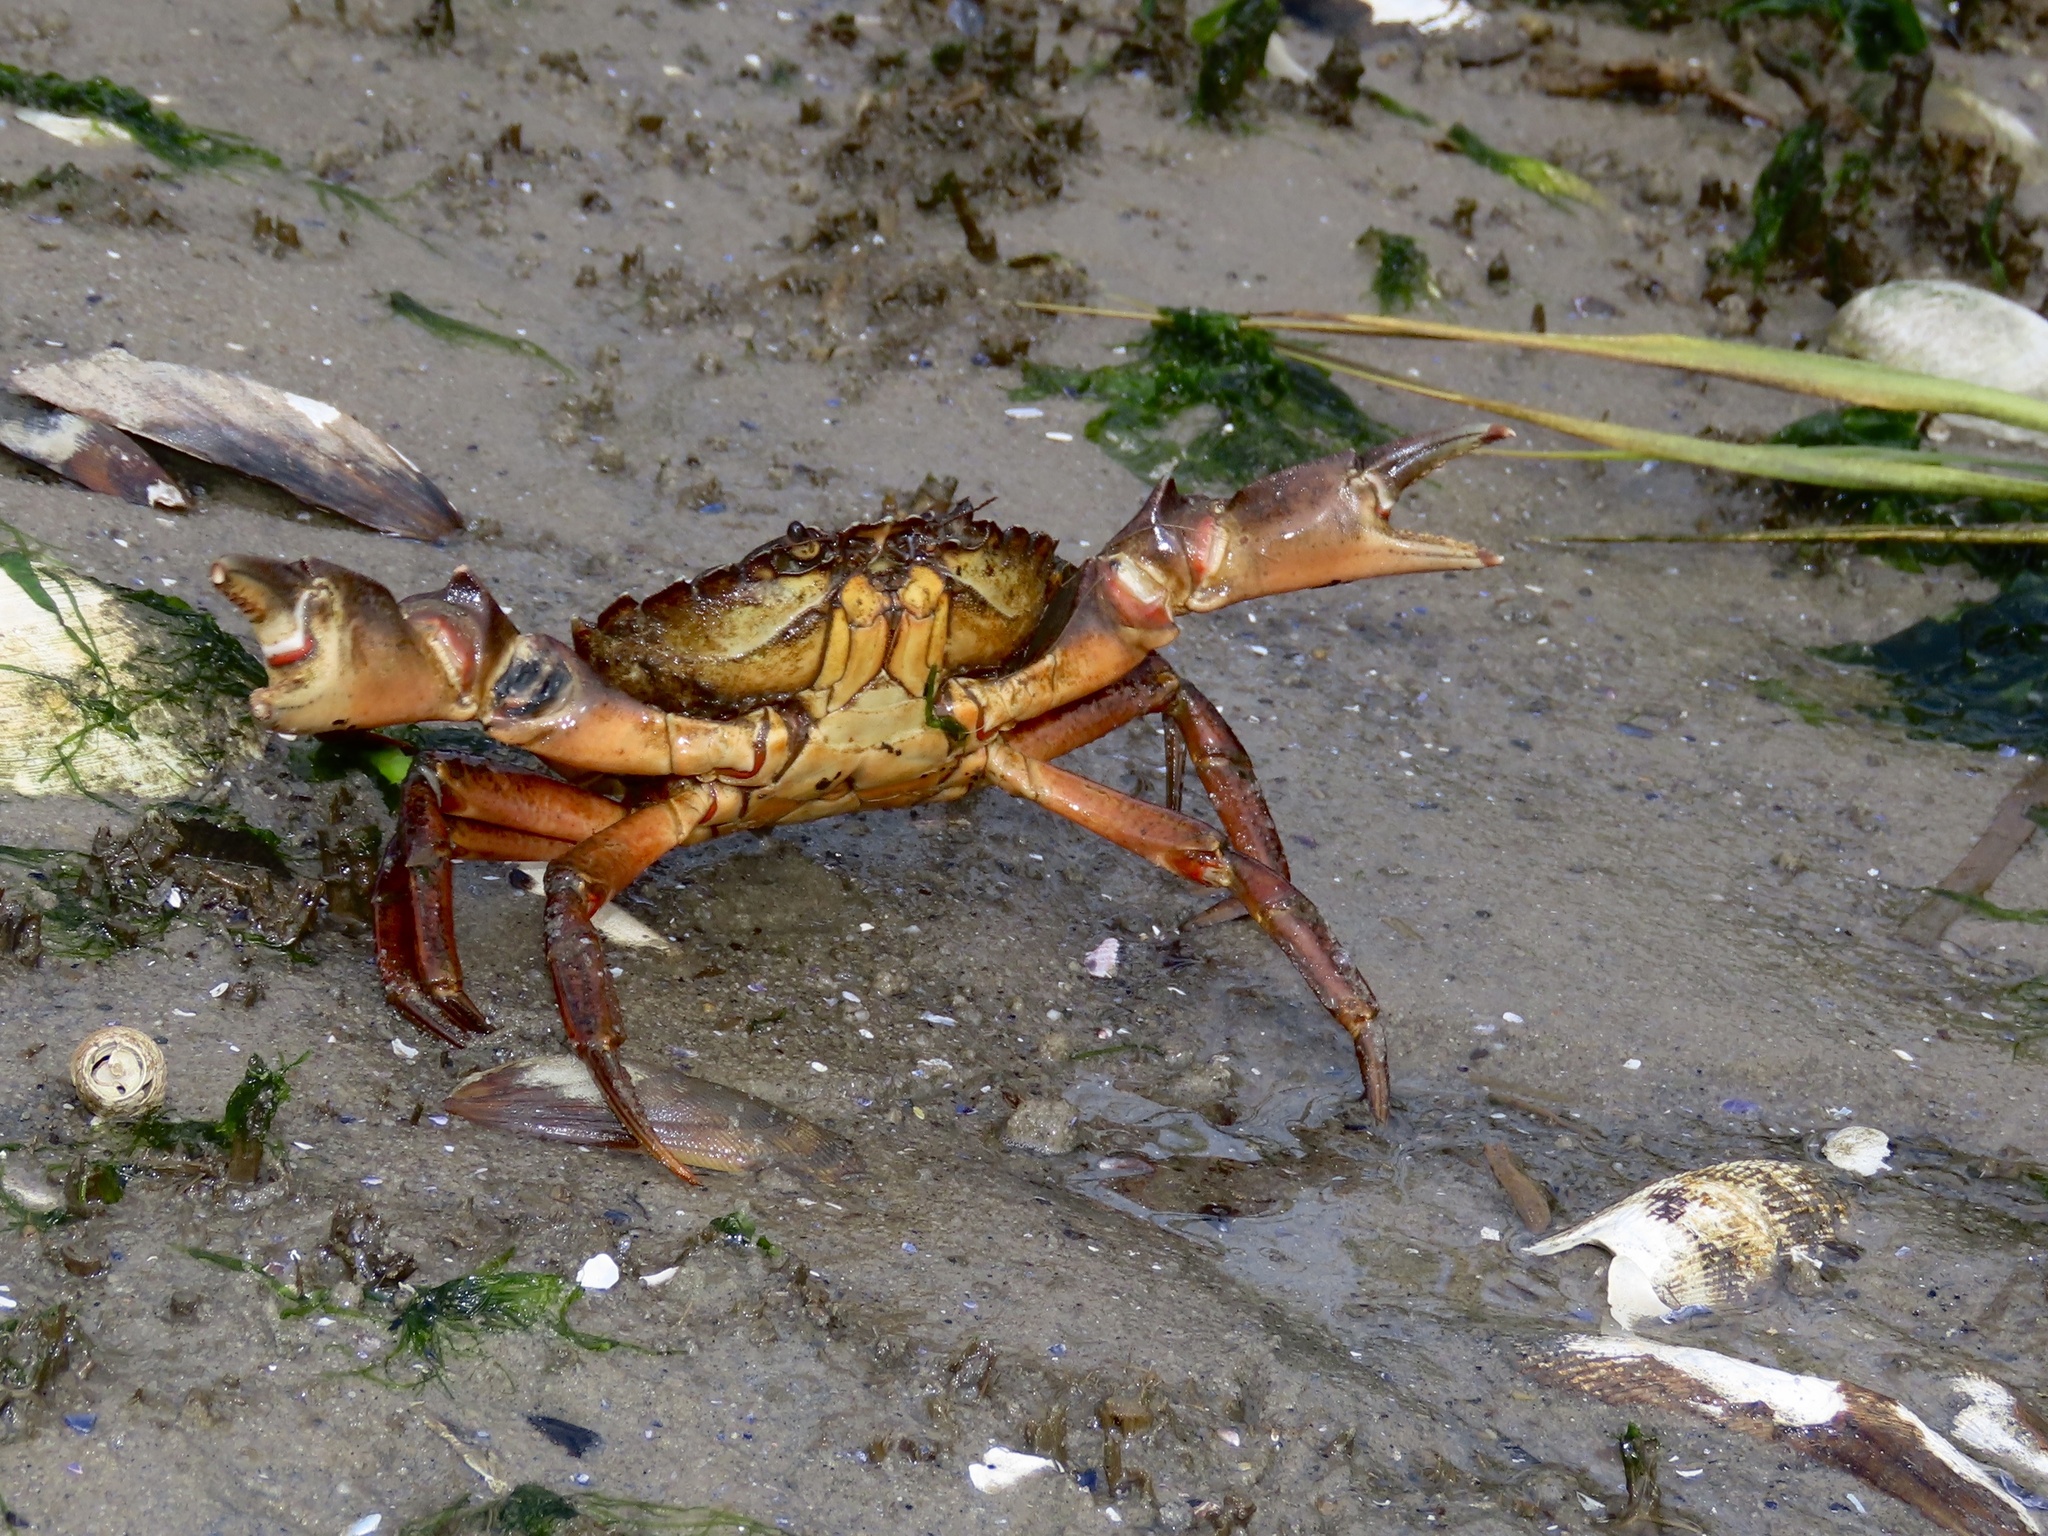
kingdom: Animalia
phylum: Arthropoda
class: Malacostraca
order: Decapoda
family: Carcinidae
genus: Carcinus
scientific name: Carcinus maenas
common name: European green crab
